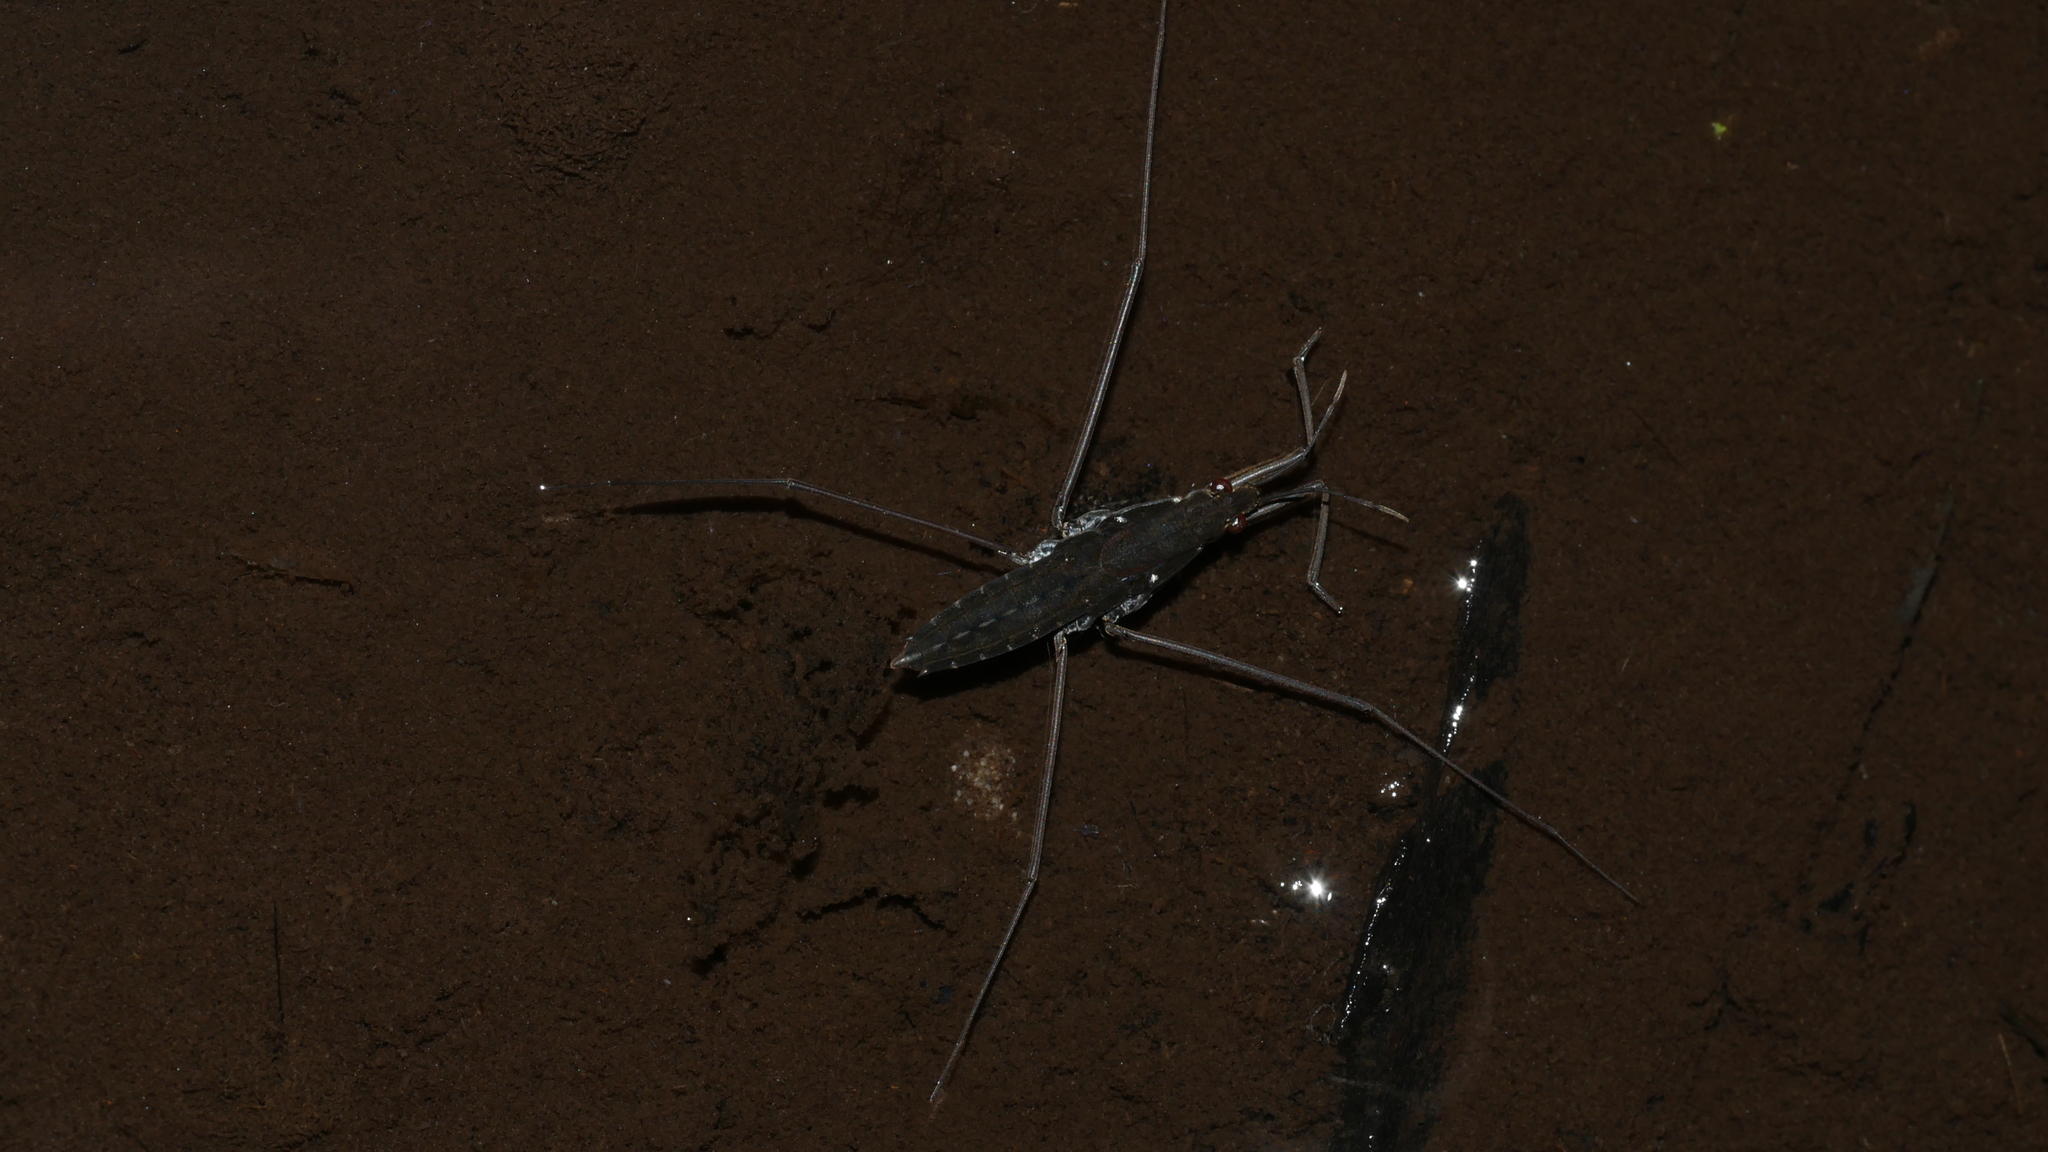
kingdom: Animalia
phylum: Arthropoda
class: Insecta
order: Hemiptera
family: Gerridae
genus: Aquarius
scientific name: Aquarius
